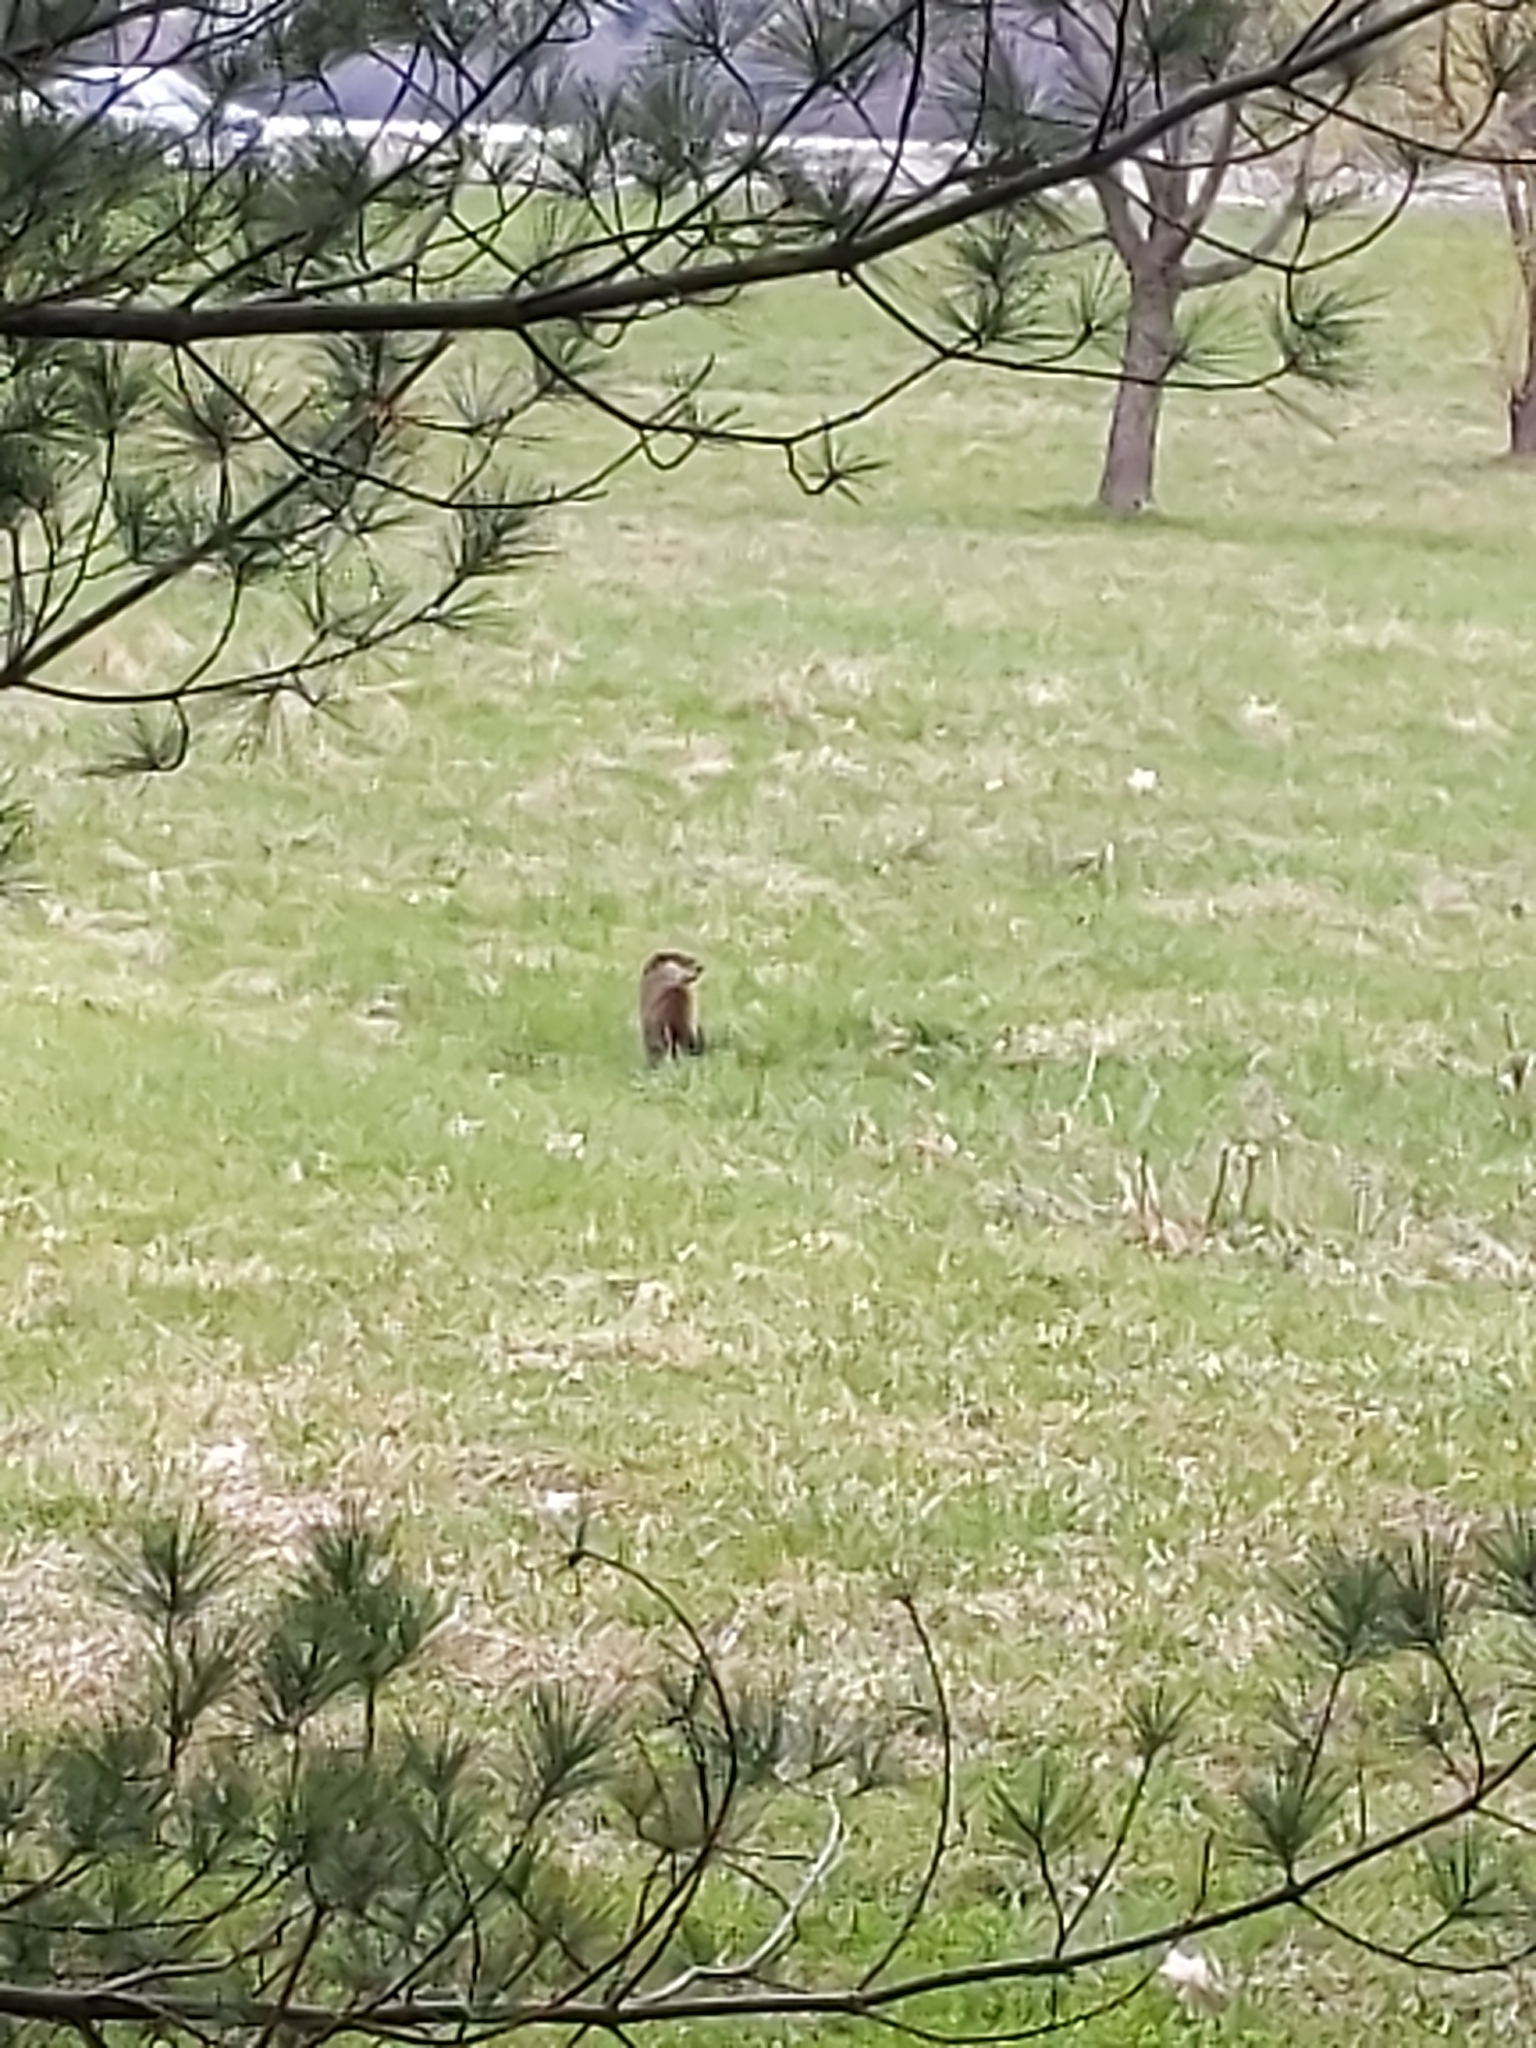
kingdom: Animalia
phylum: Chordata
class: Mammalia
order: Rodentia
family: Sciuridae
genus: Marmota
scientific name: Marmota monax
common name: Groundhog
